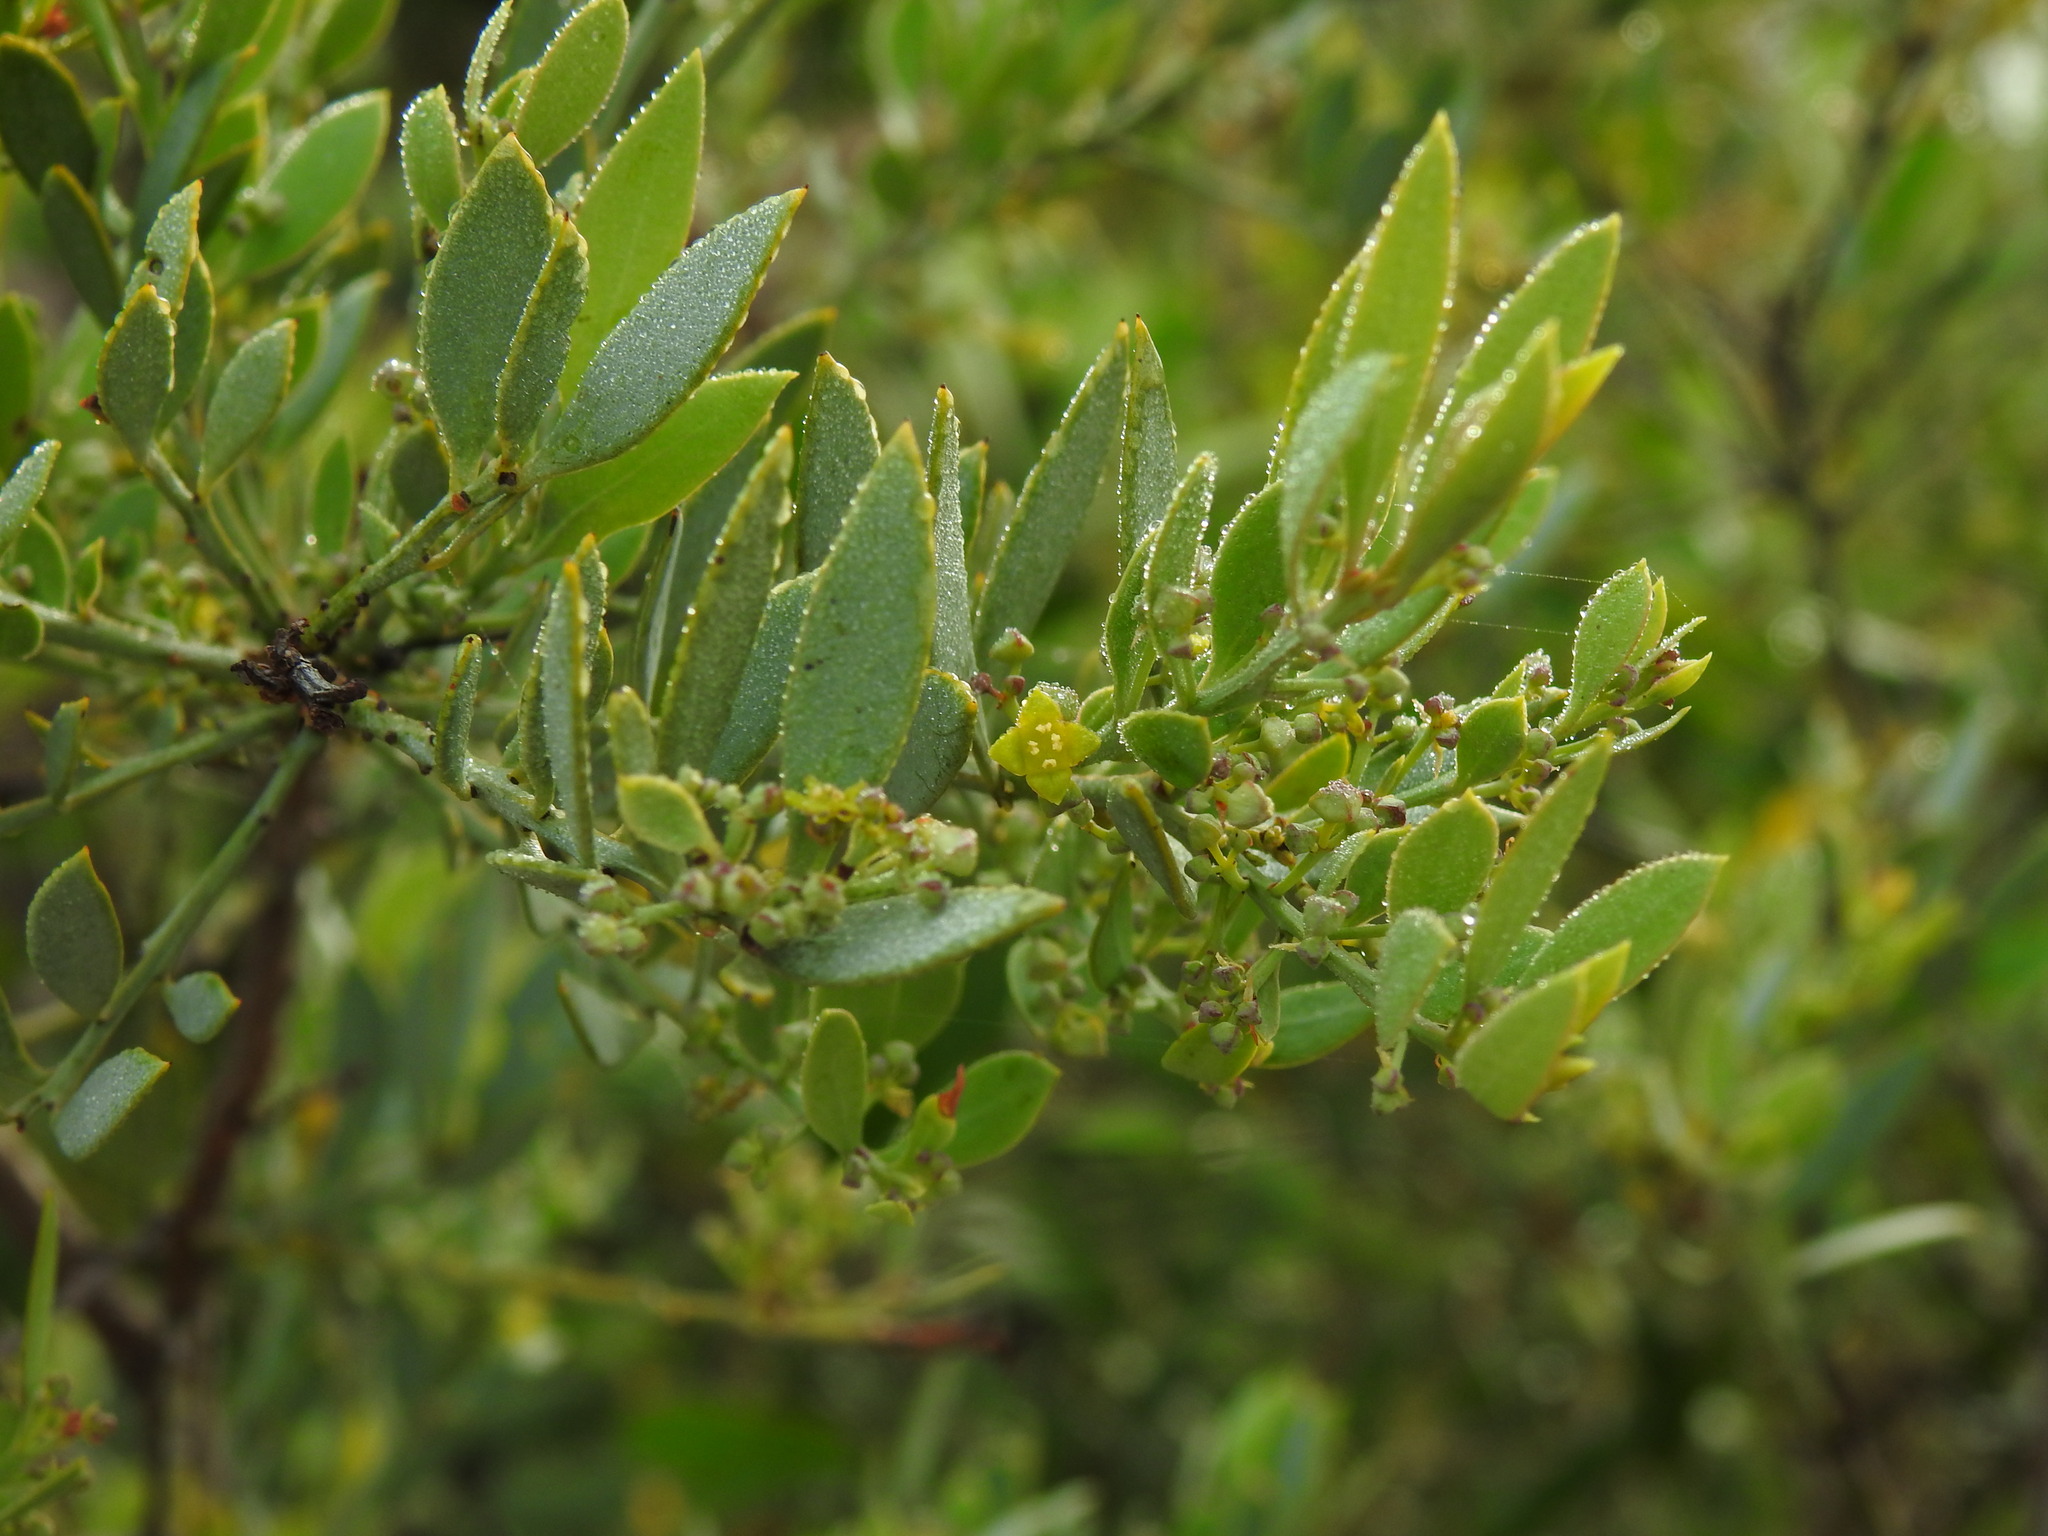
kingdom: Plantae
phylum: Tracheophyta
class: Magnoliopsida
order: Santalales
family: Santalaceae
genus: Osyris
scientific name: Osyris lanceolata
